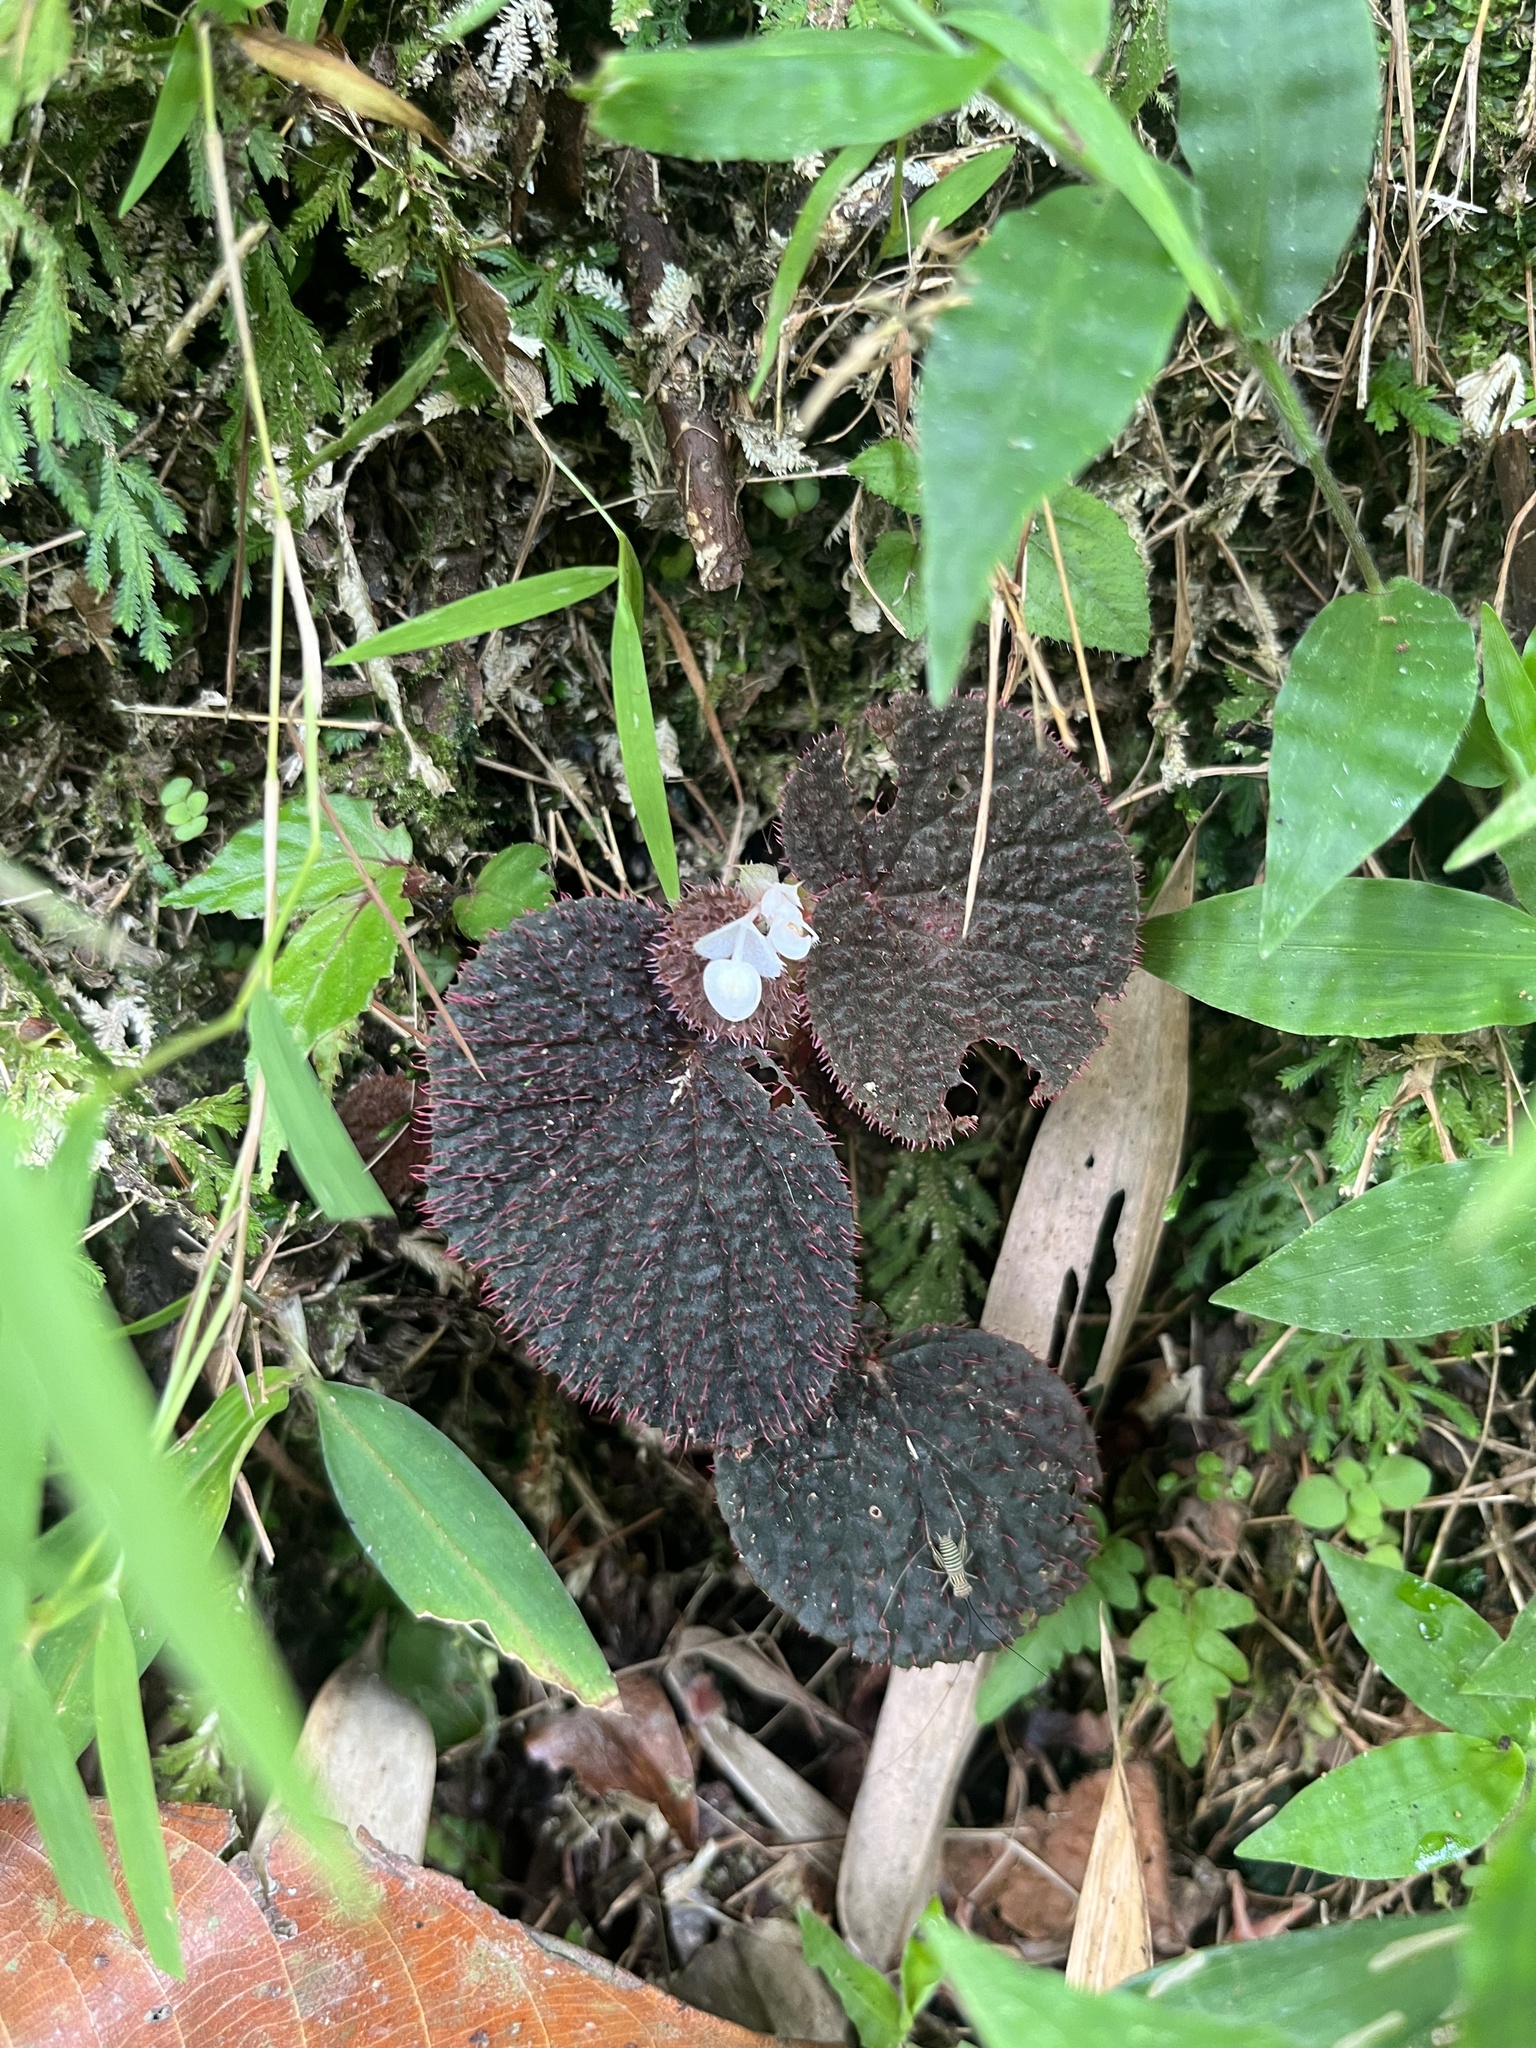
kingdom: Plantae
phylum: Tracheophyta
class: Magnoliopsida
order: Cucurbitales
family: Begoniaceae
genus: Begonia
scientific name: Begonia baik
